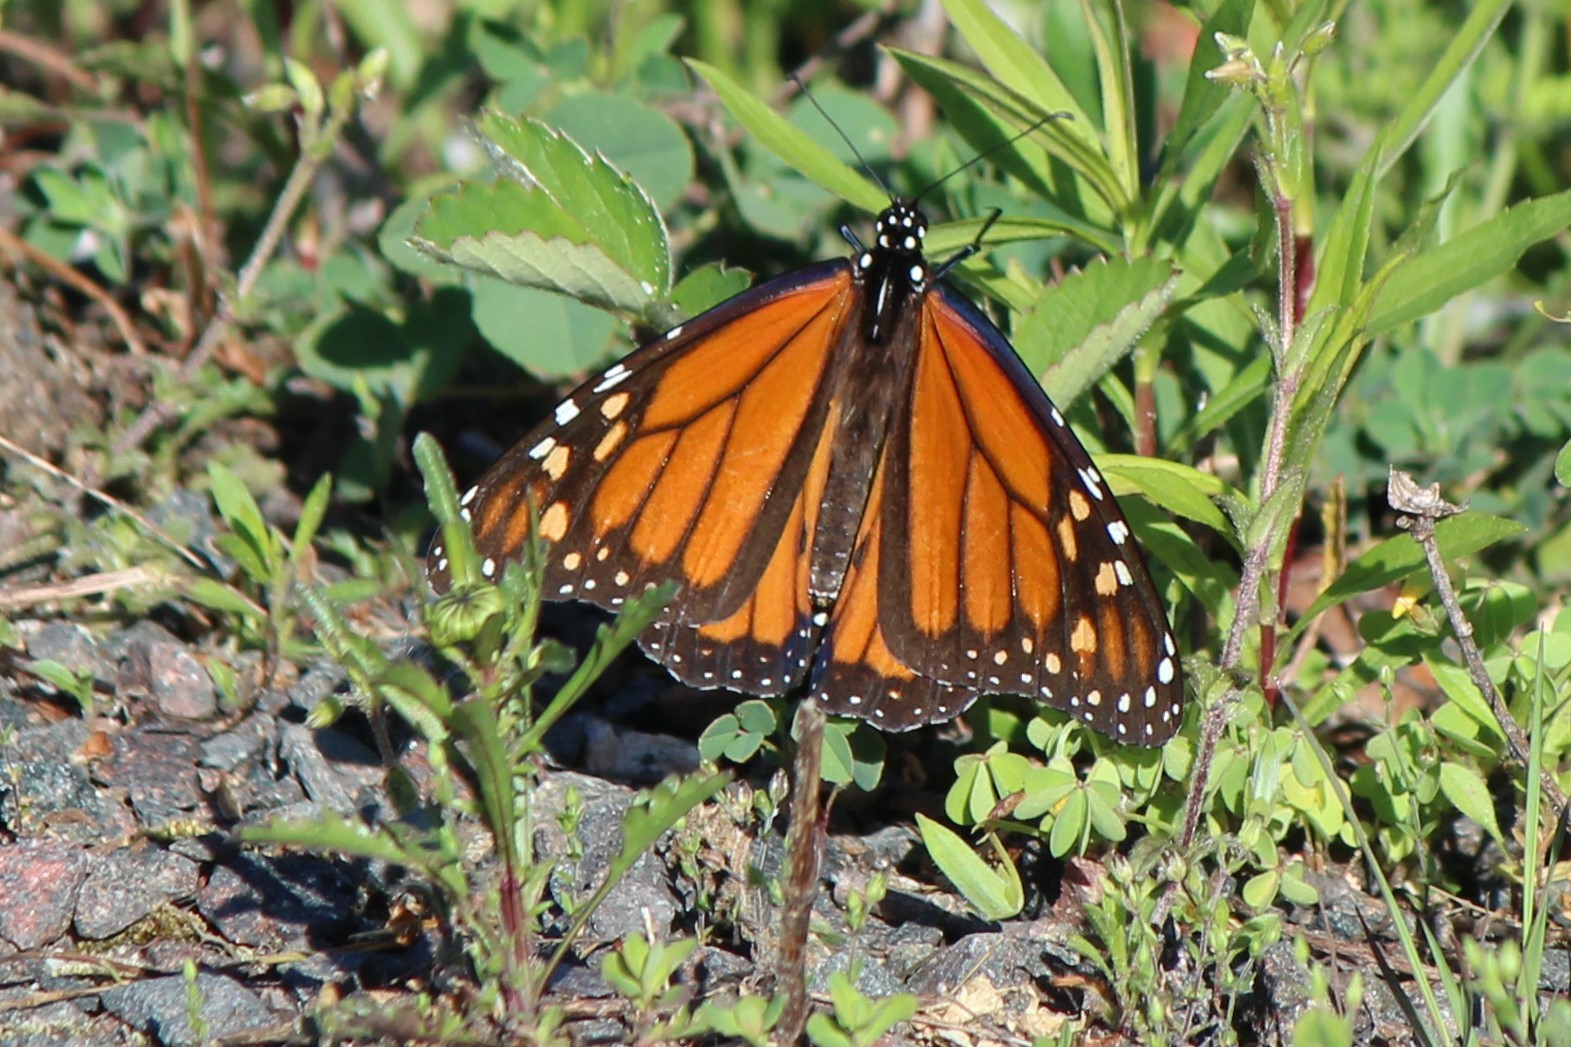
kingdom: Animalia
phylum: Arthropoda
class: Insecta
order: Lepidoptera
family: Nymphalidae
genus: Danaus
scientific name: Danaus plexippus
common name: Monarch
